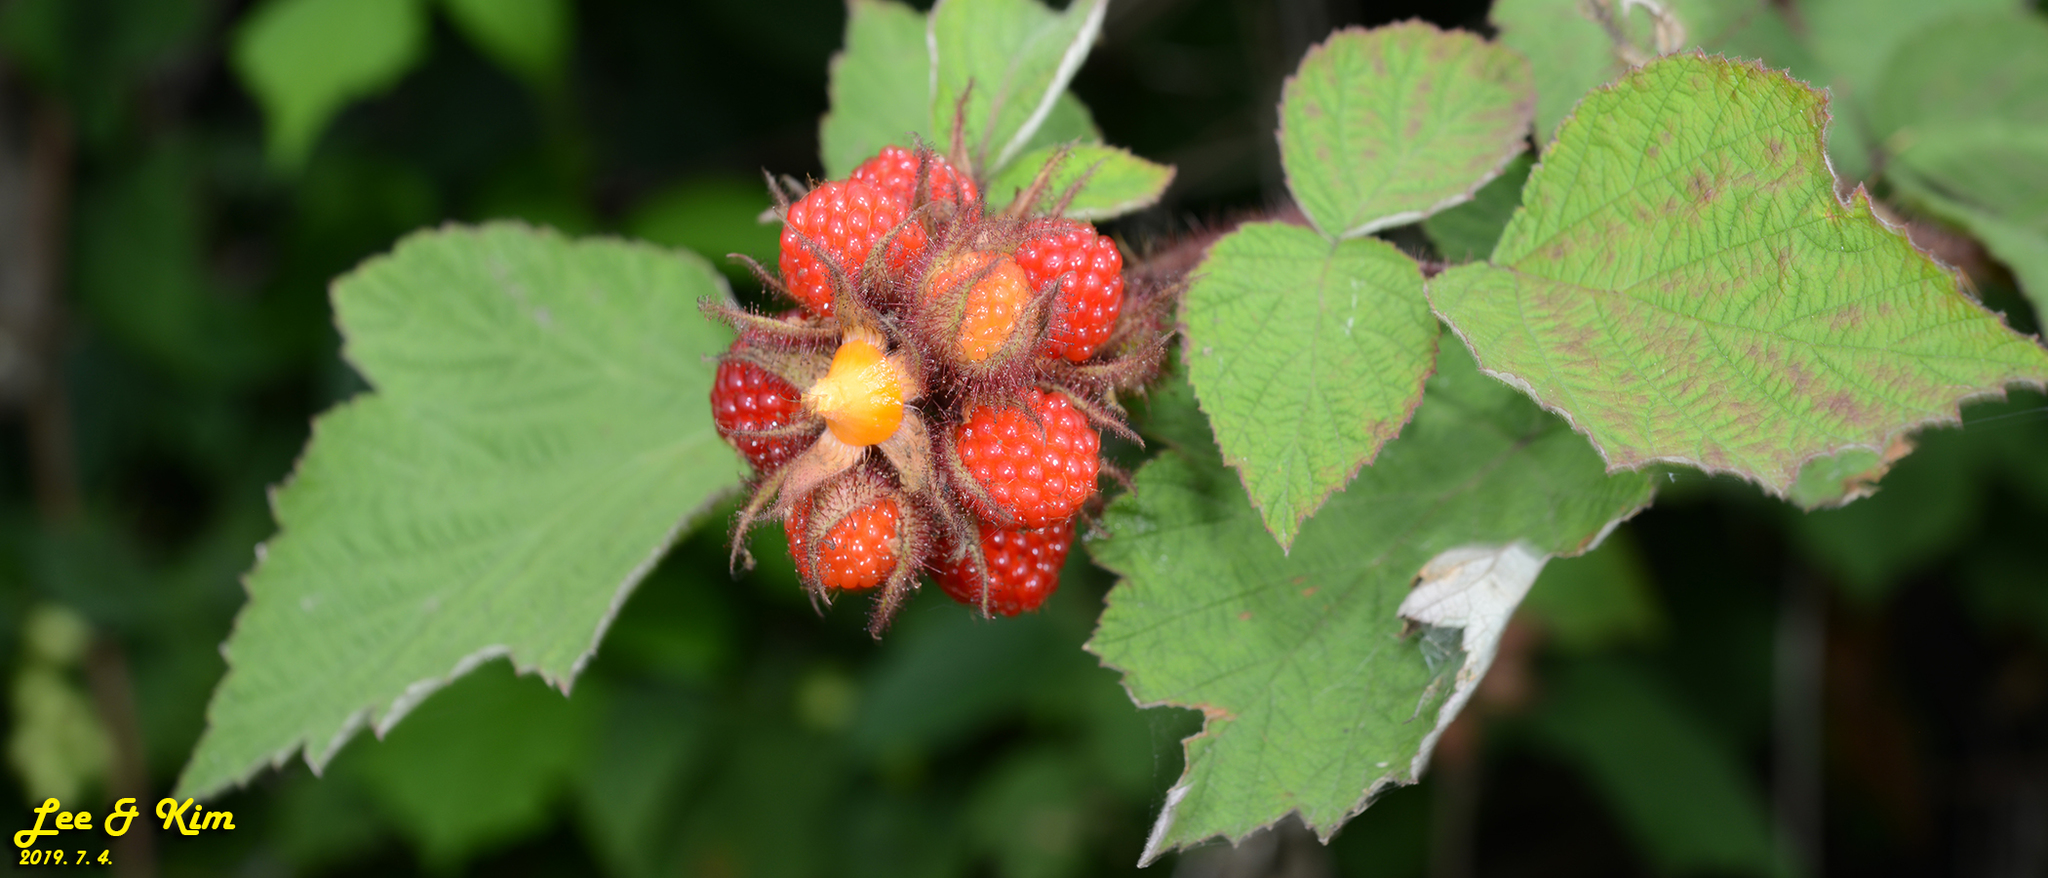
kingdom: Plantae
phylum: Tracheophyta
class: Magnoliopsida
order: Rosales
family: Rosaceae
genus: Rubus
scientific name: Rubus phoenicolasius
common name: Japanese wineberry
